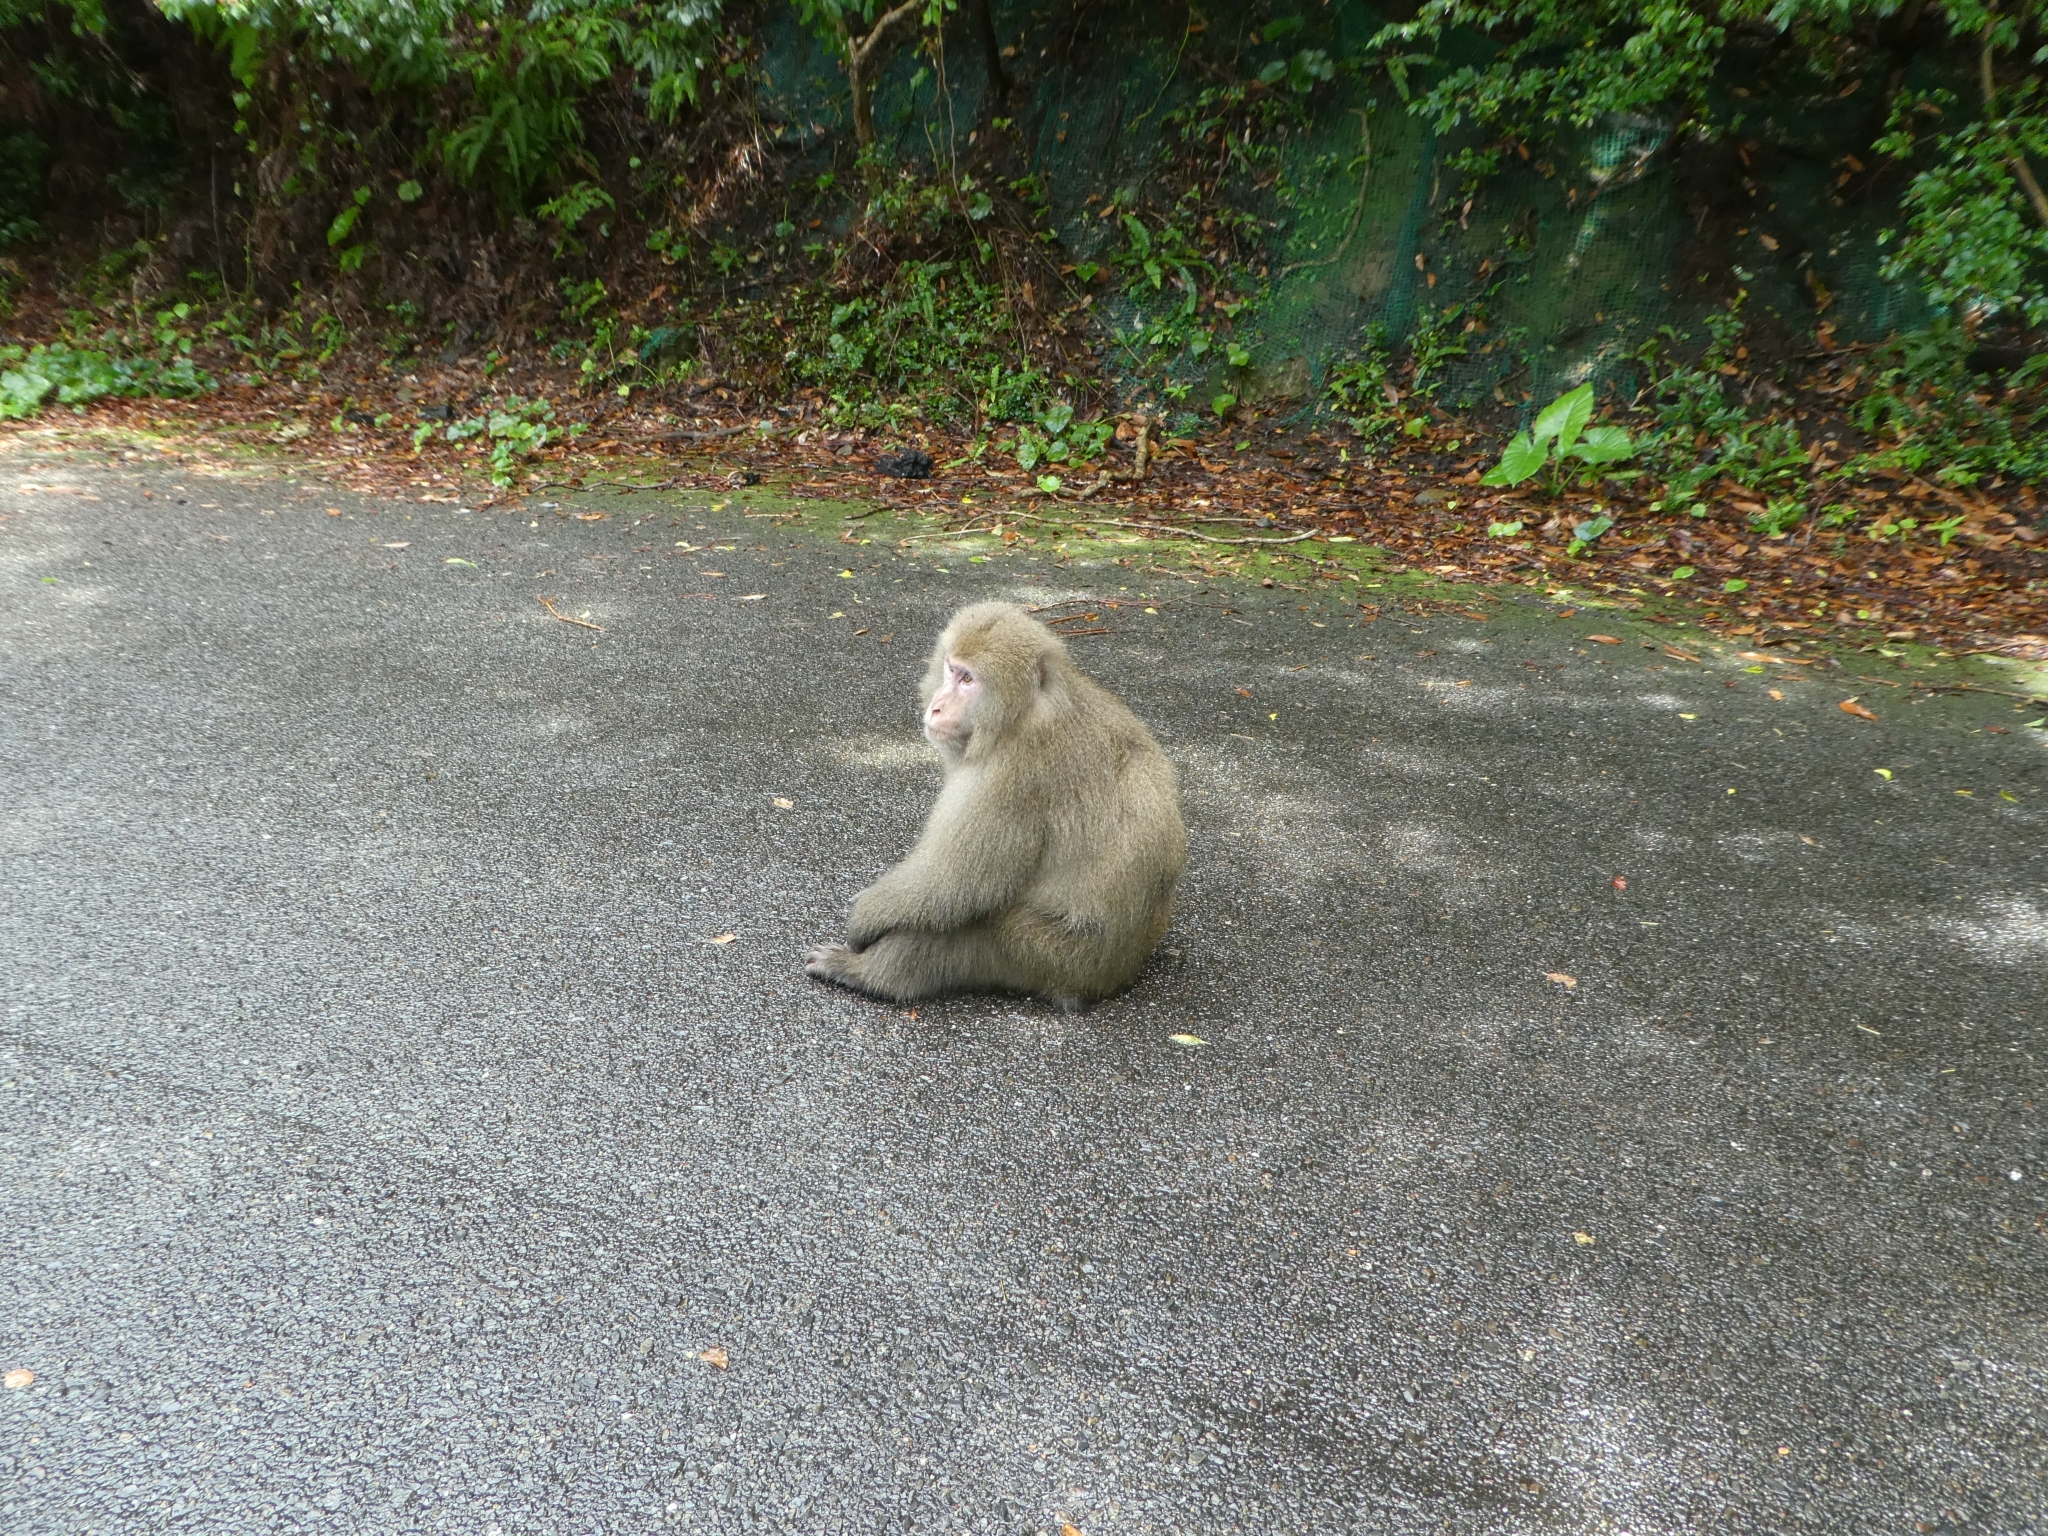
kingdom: Animalia
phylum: Chordata
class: Mammalia
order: Primates
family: Cercopithecidae
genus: Macaca
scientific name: Macaca fuscata
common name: Japanese macaque
